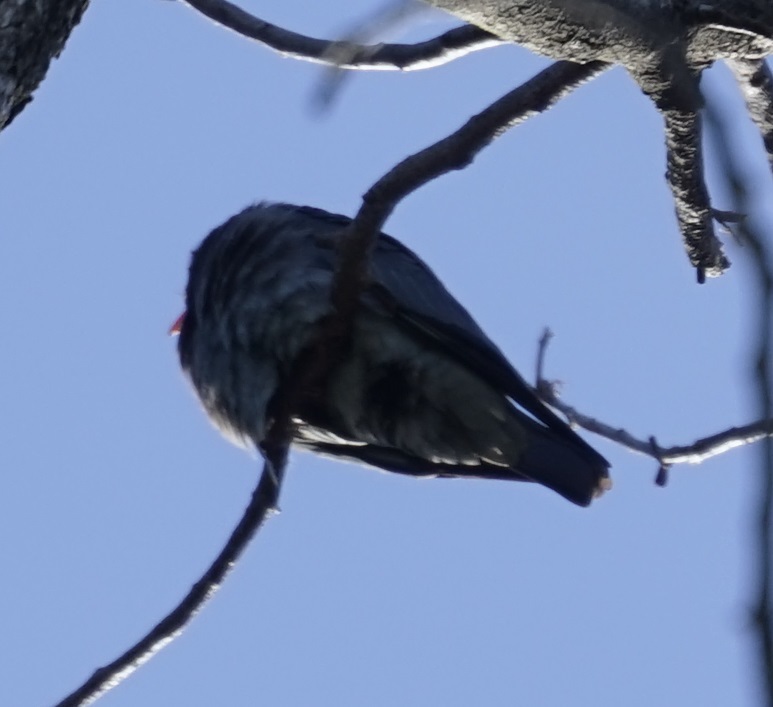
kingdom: Animalia
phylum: Chordata
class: Aves
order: Coraciiformes
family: Coraciidae
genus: Eurystomus
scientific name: Eurystomus orientalis
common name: Oriental dollarbird
